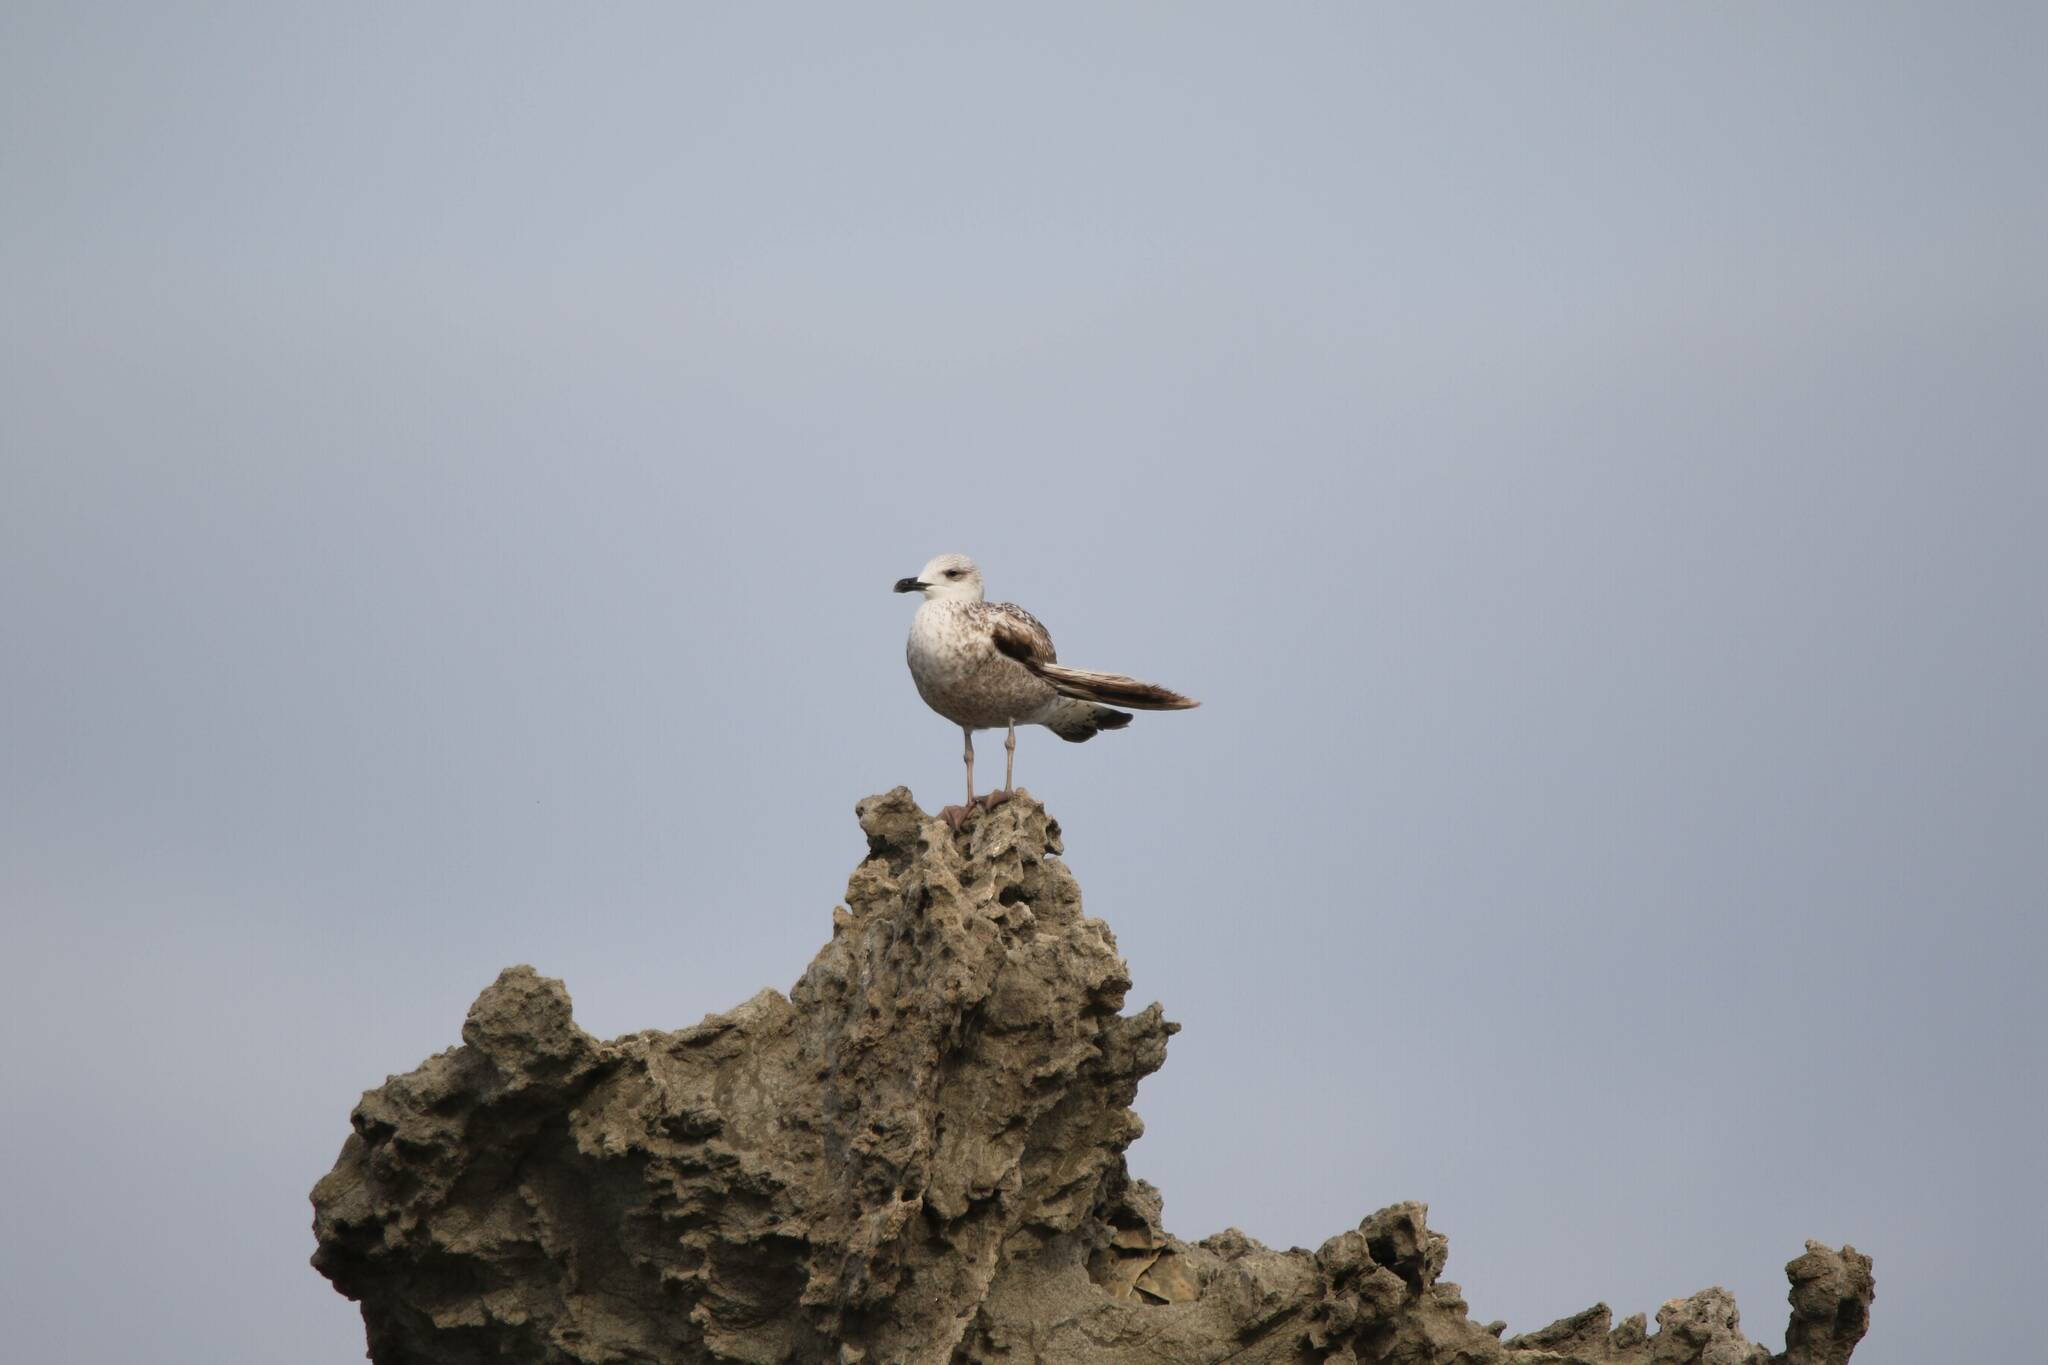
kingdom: Animalia
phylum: Chordata
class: Aves
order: Charadriiformes
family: Laridae
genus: Larus
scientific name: Larus michahellis
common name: Yellow-legged gull
